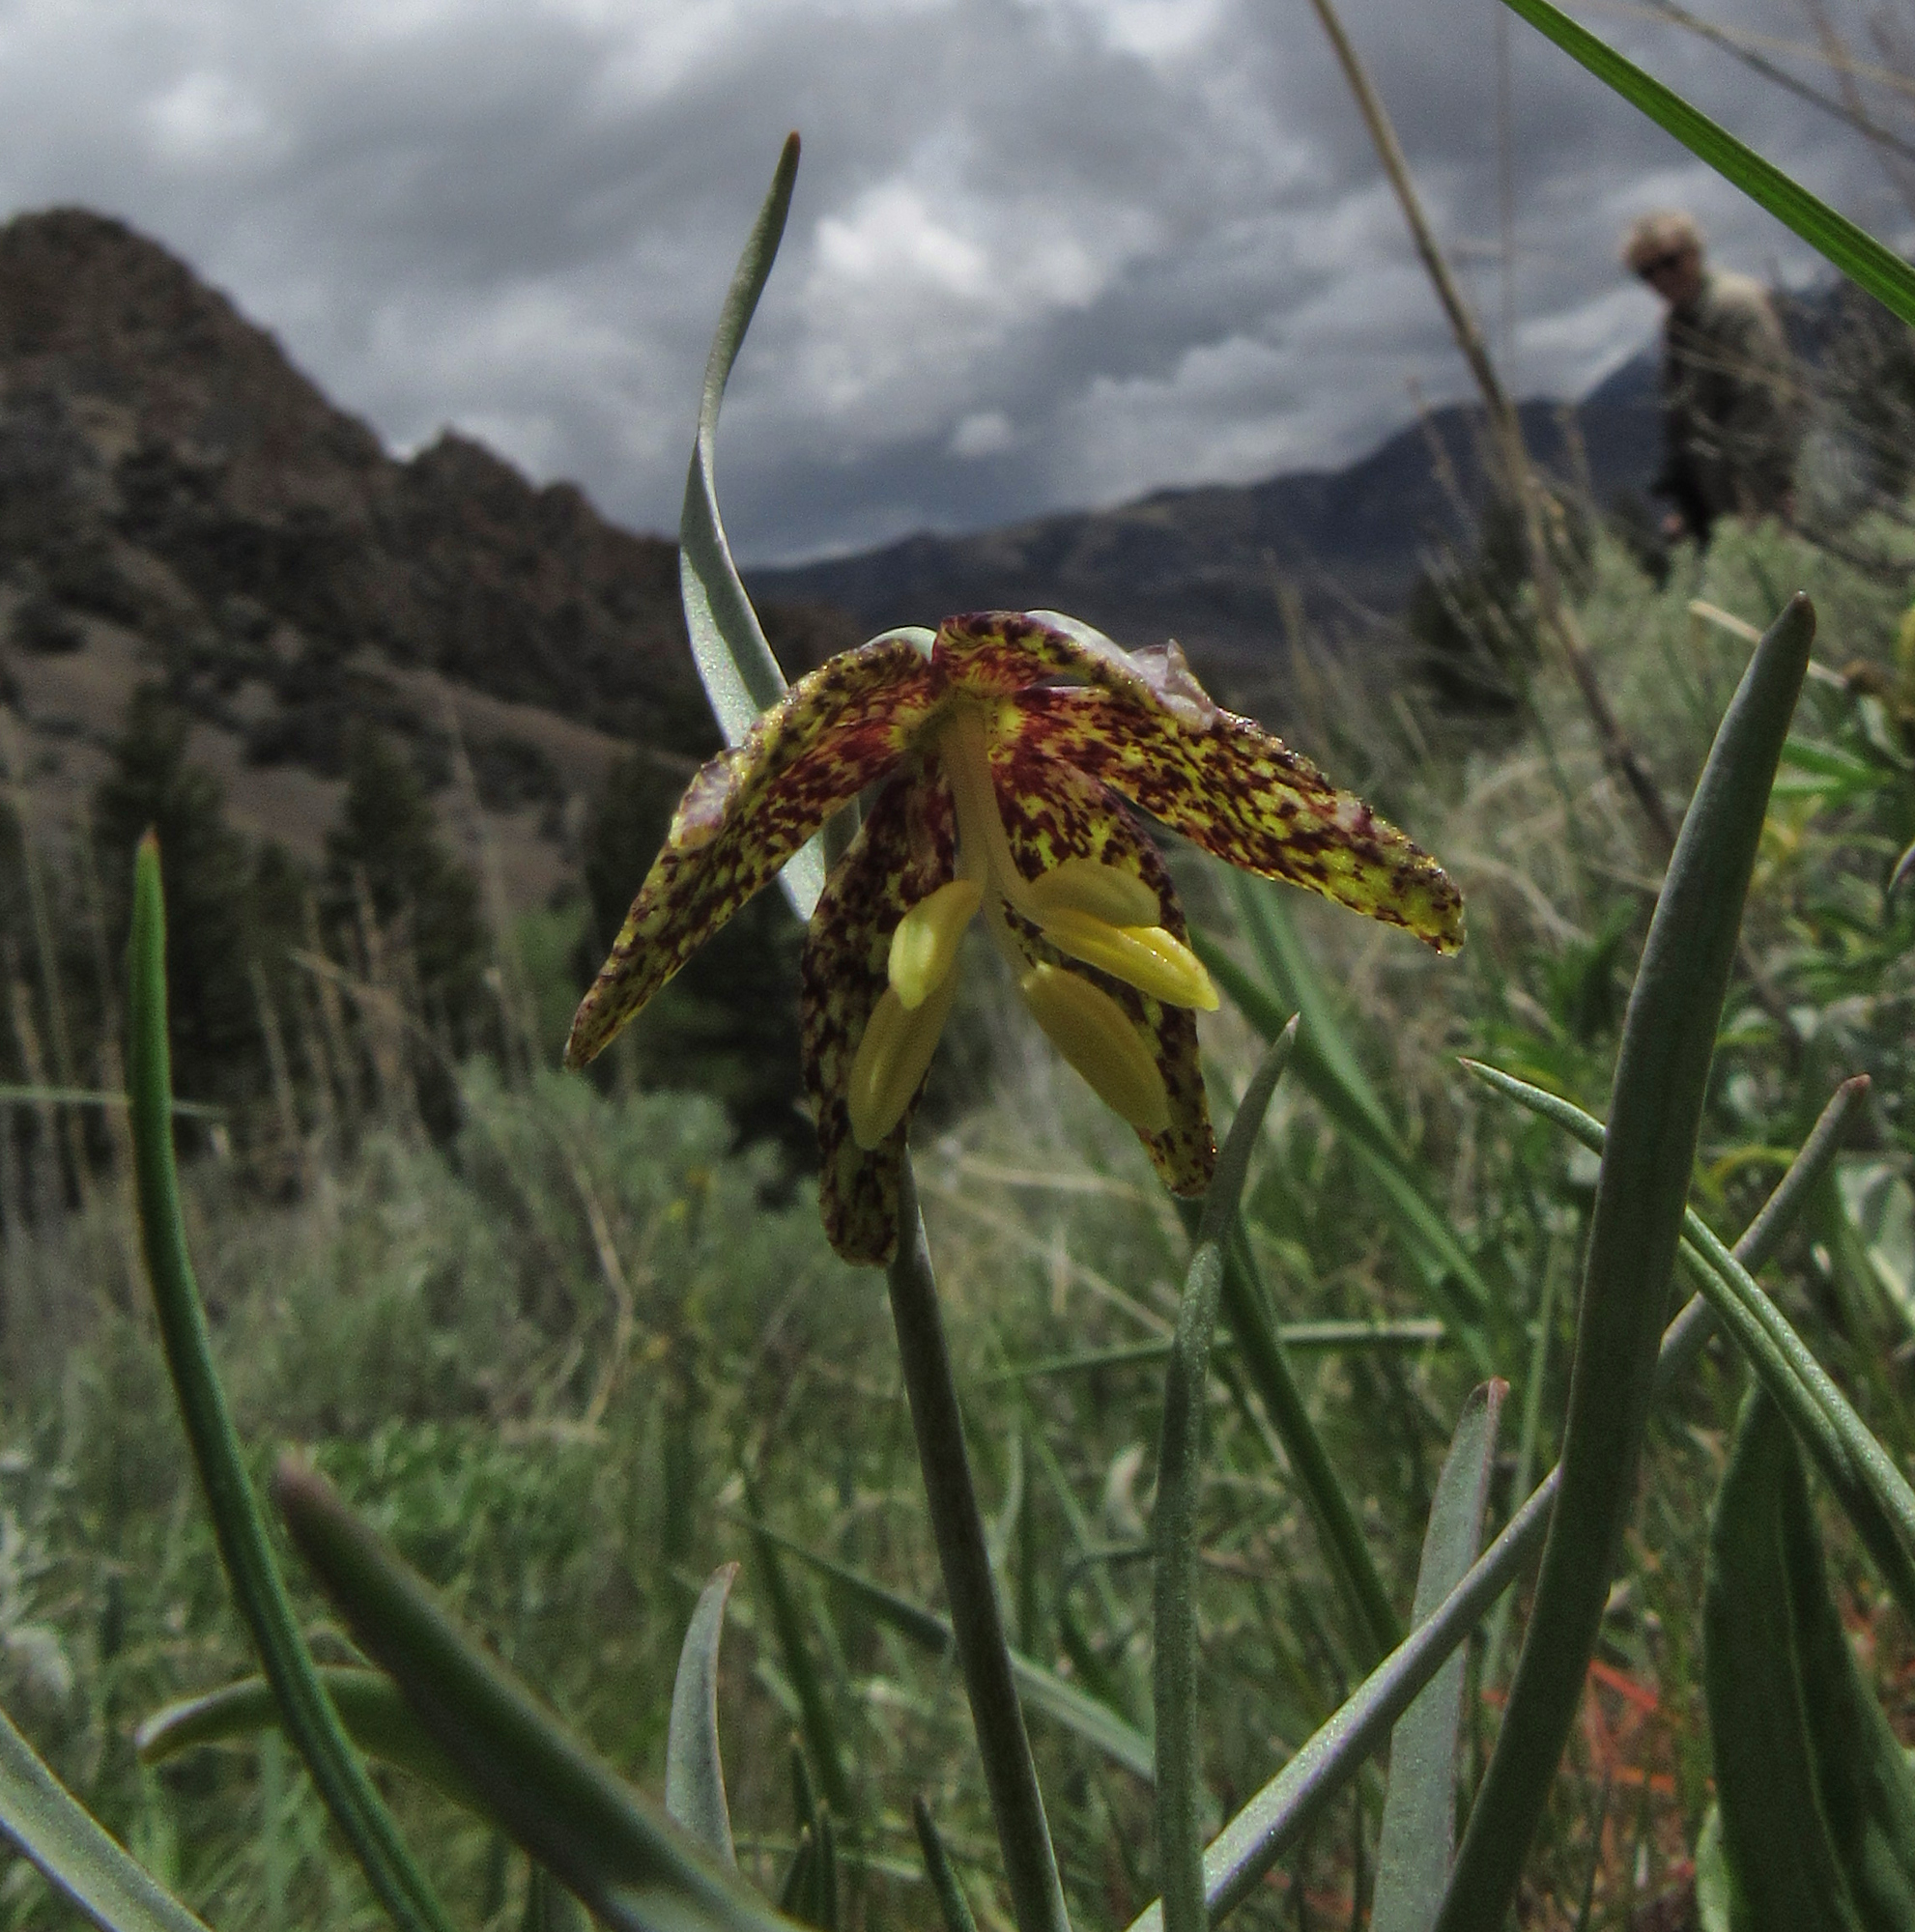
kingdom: Plantae
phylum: Tracheophyta
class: Liliopsida
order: Liliales
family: Liliaceae
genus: Fritillaria
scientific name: Fritillaria atropurpurea
